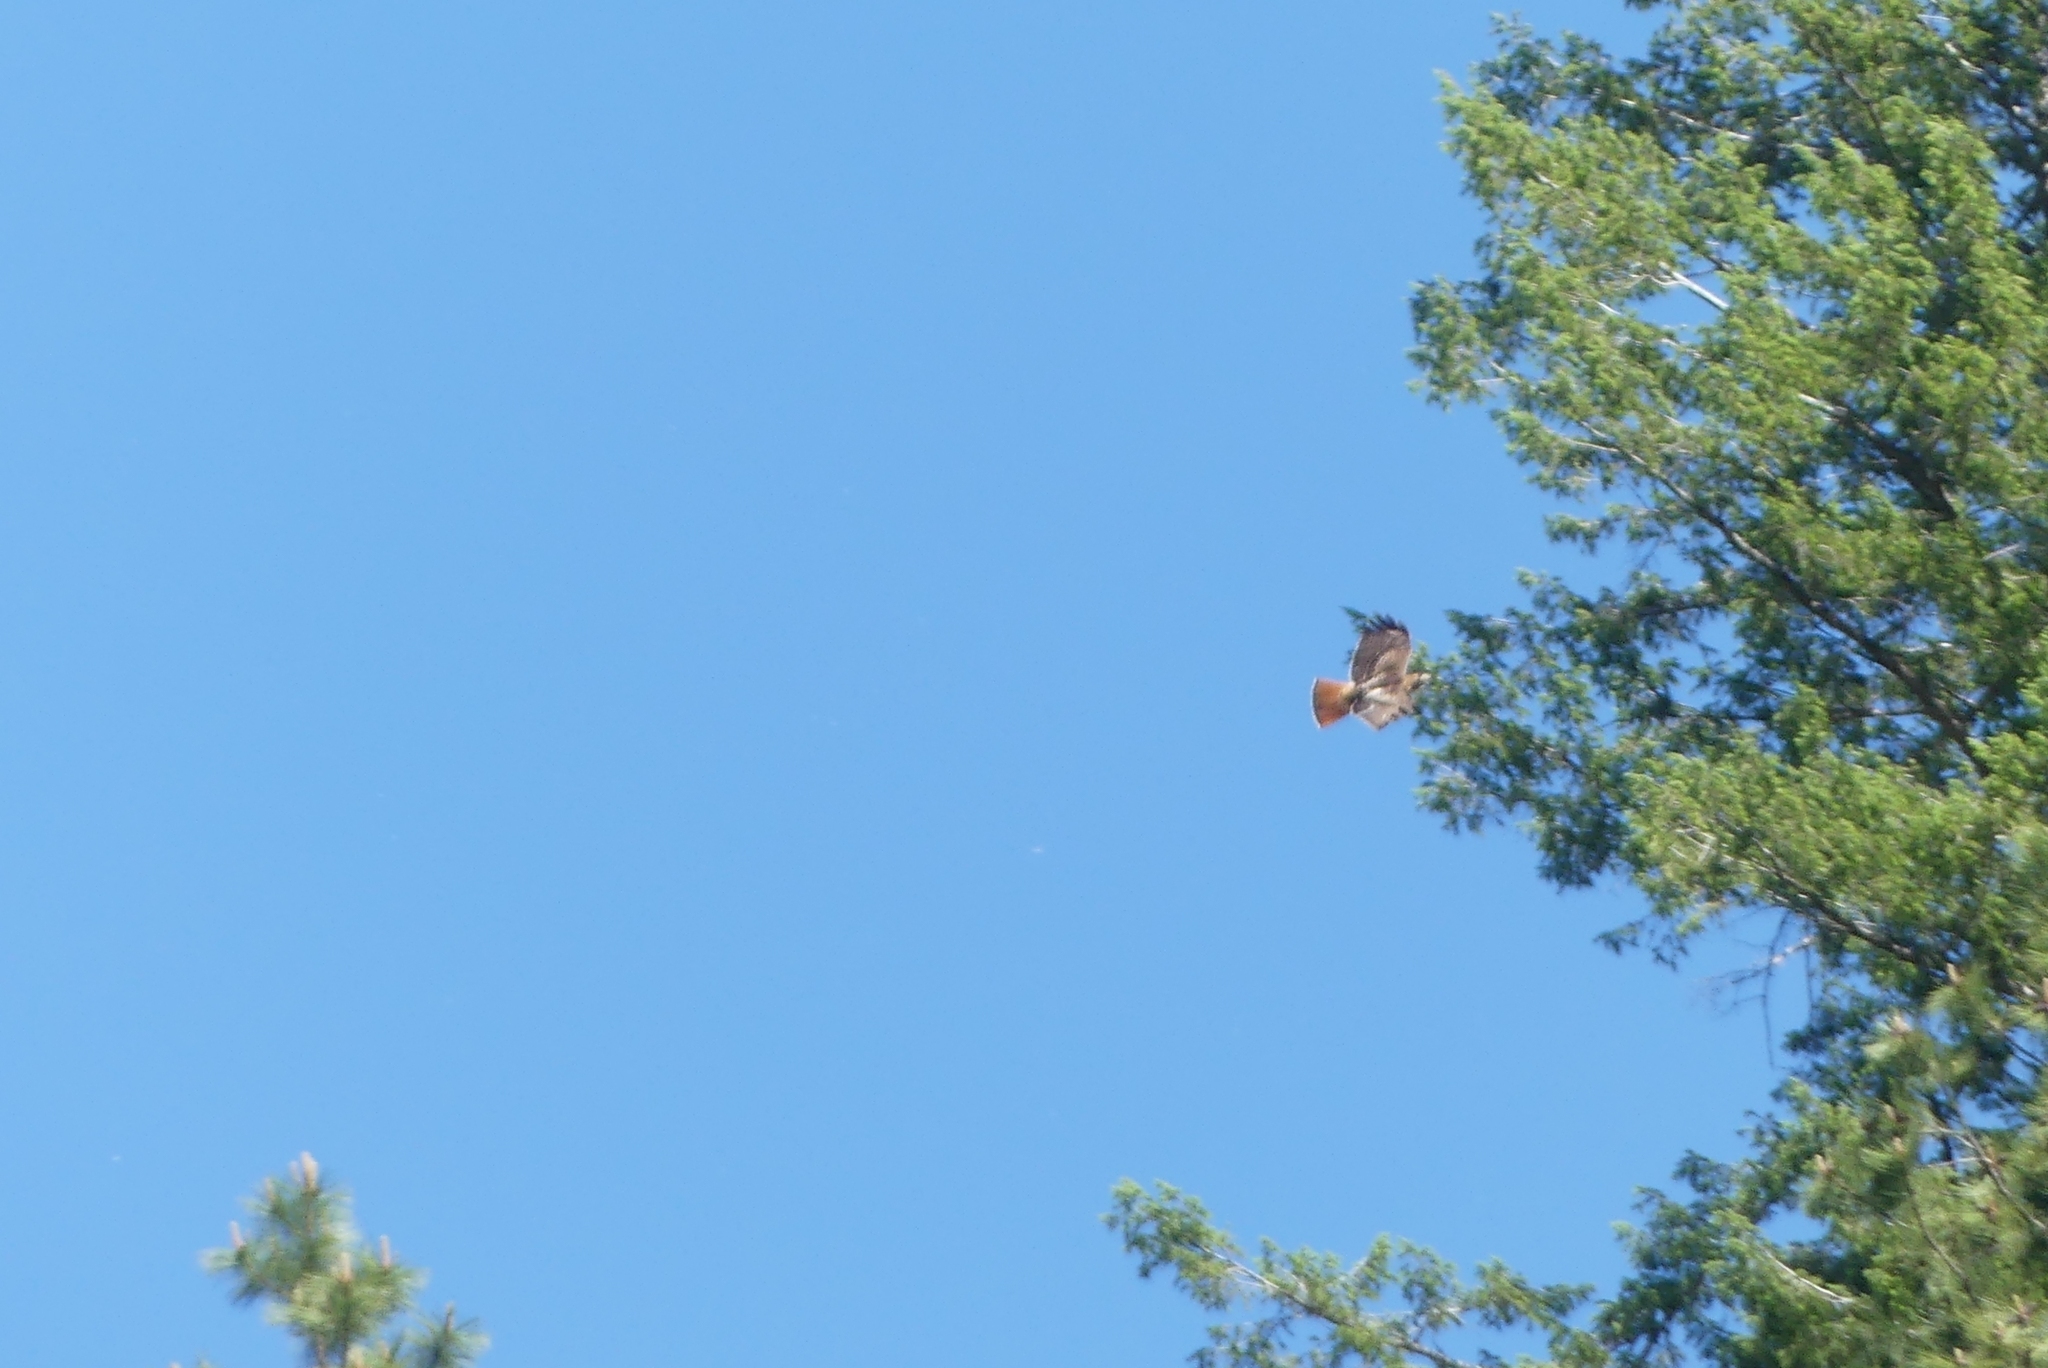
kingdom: Animalia
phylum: Chordata
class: Aves
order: Accipitriformes
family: Accipitridae
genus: Buteo
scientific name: Buteo jamaicensis
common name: Red-tailed hawk
